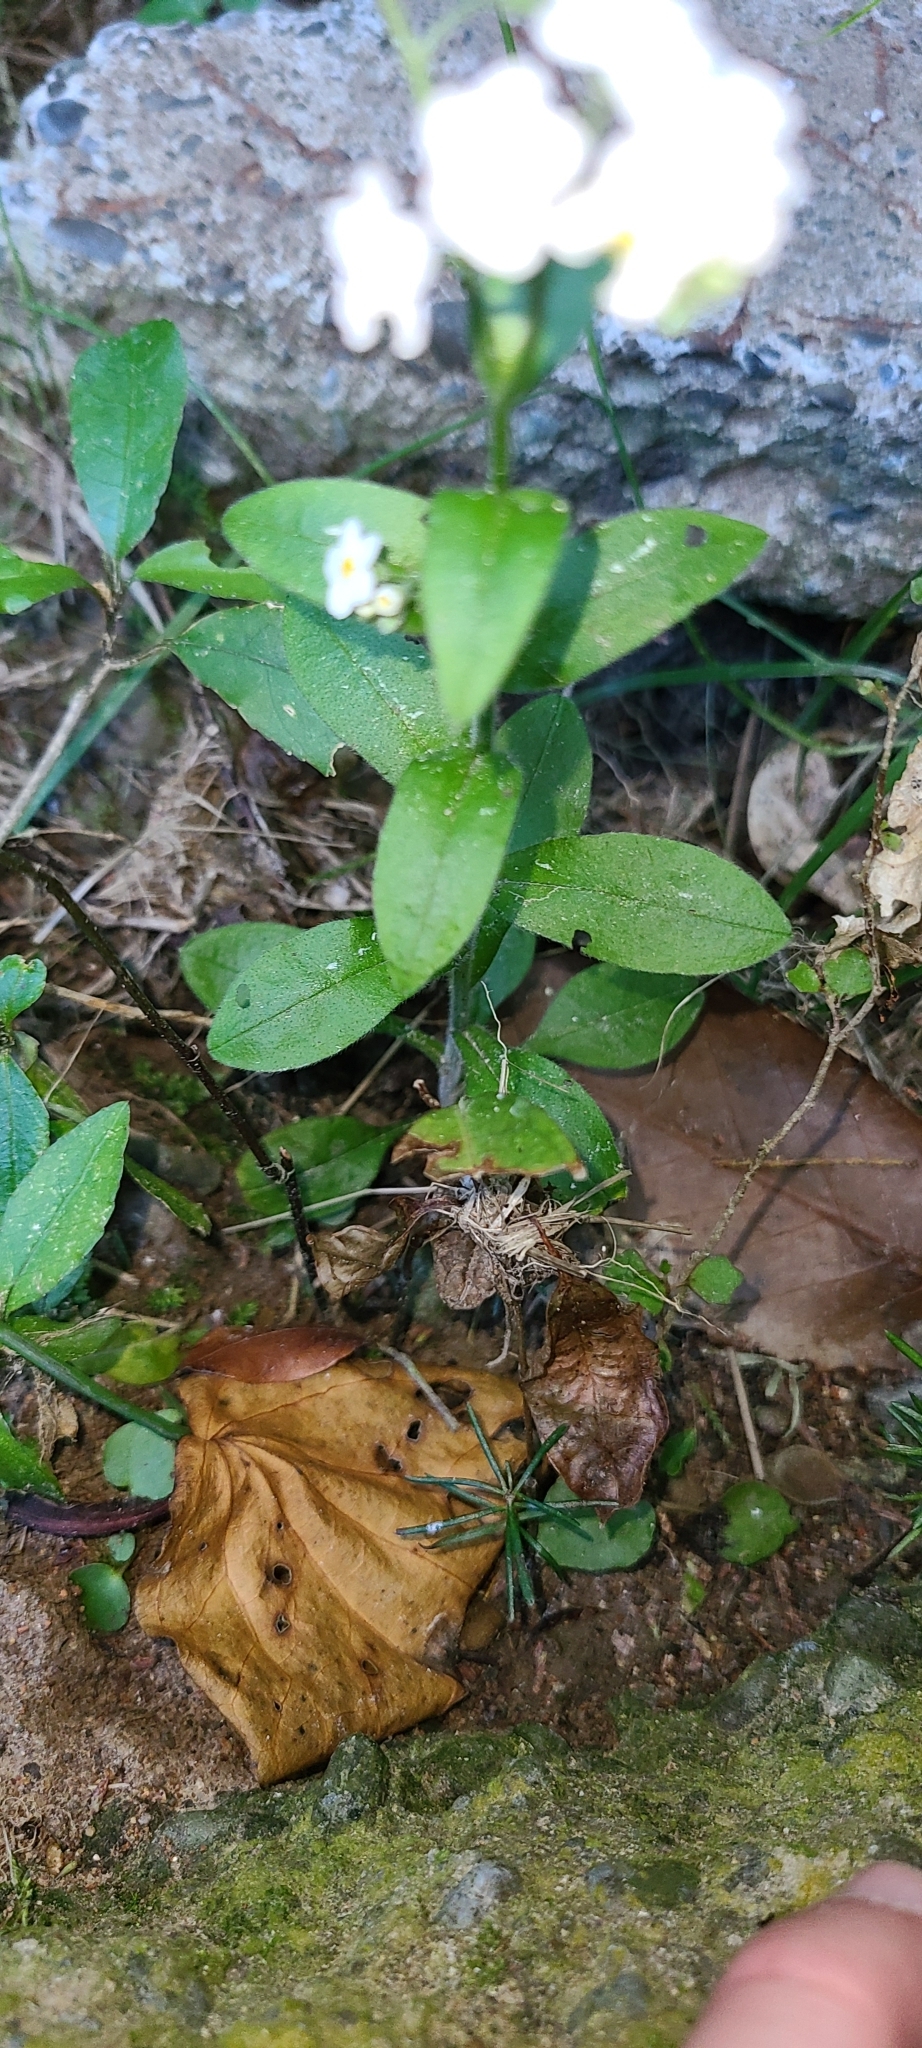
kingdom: Plantae
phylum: Tracheophyta
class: Magnoliopsida
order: Boraginales
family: Boraginaceae
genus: Myosotis
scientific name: Myosotis australis
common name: Australian forget-me-not
